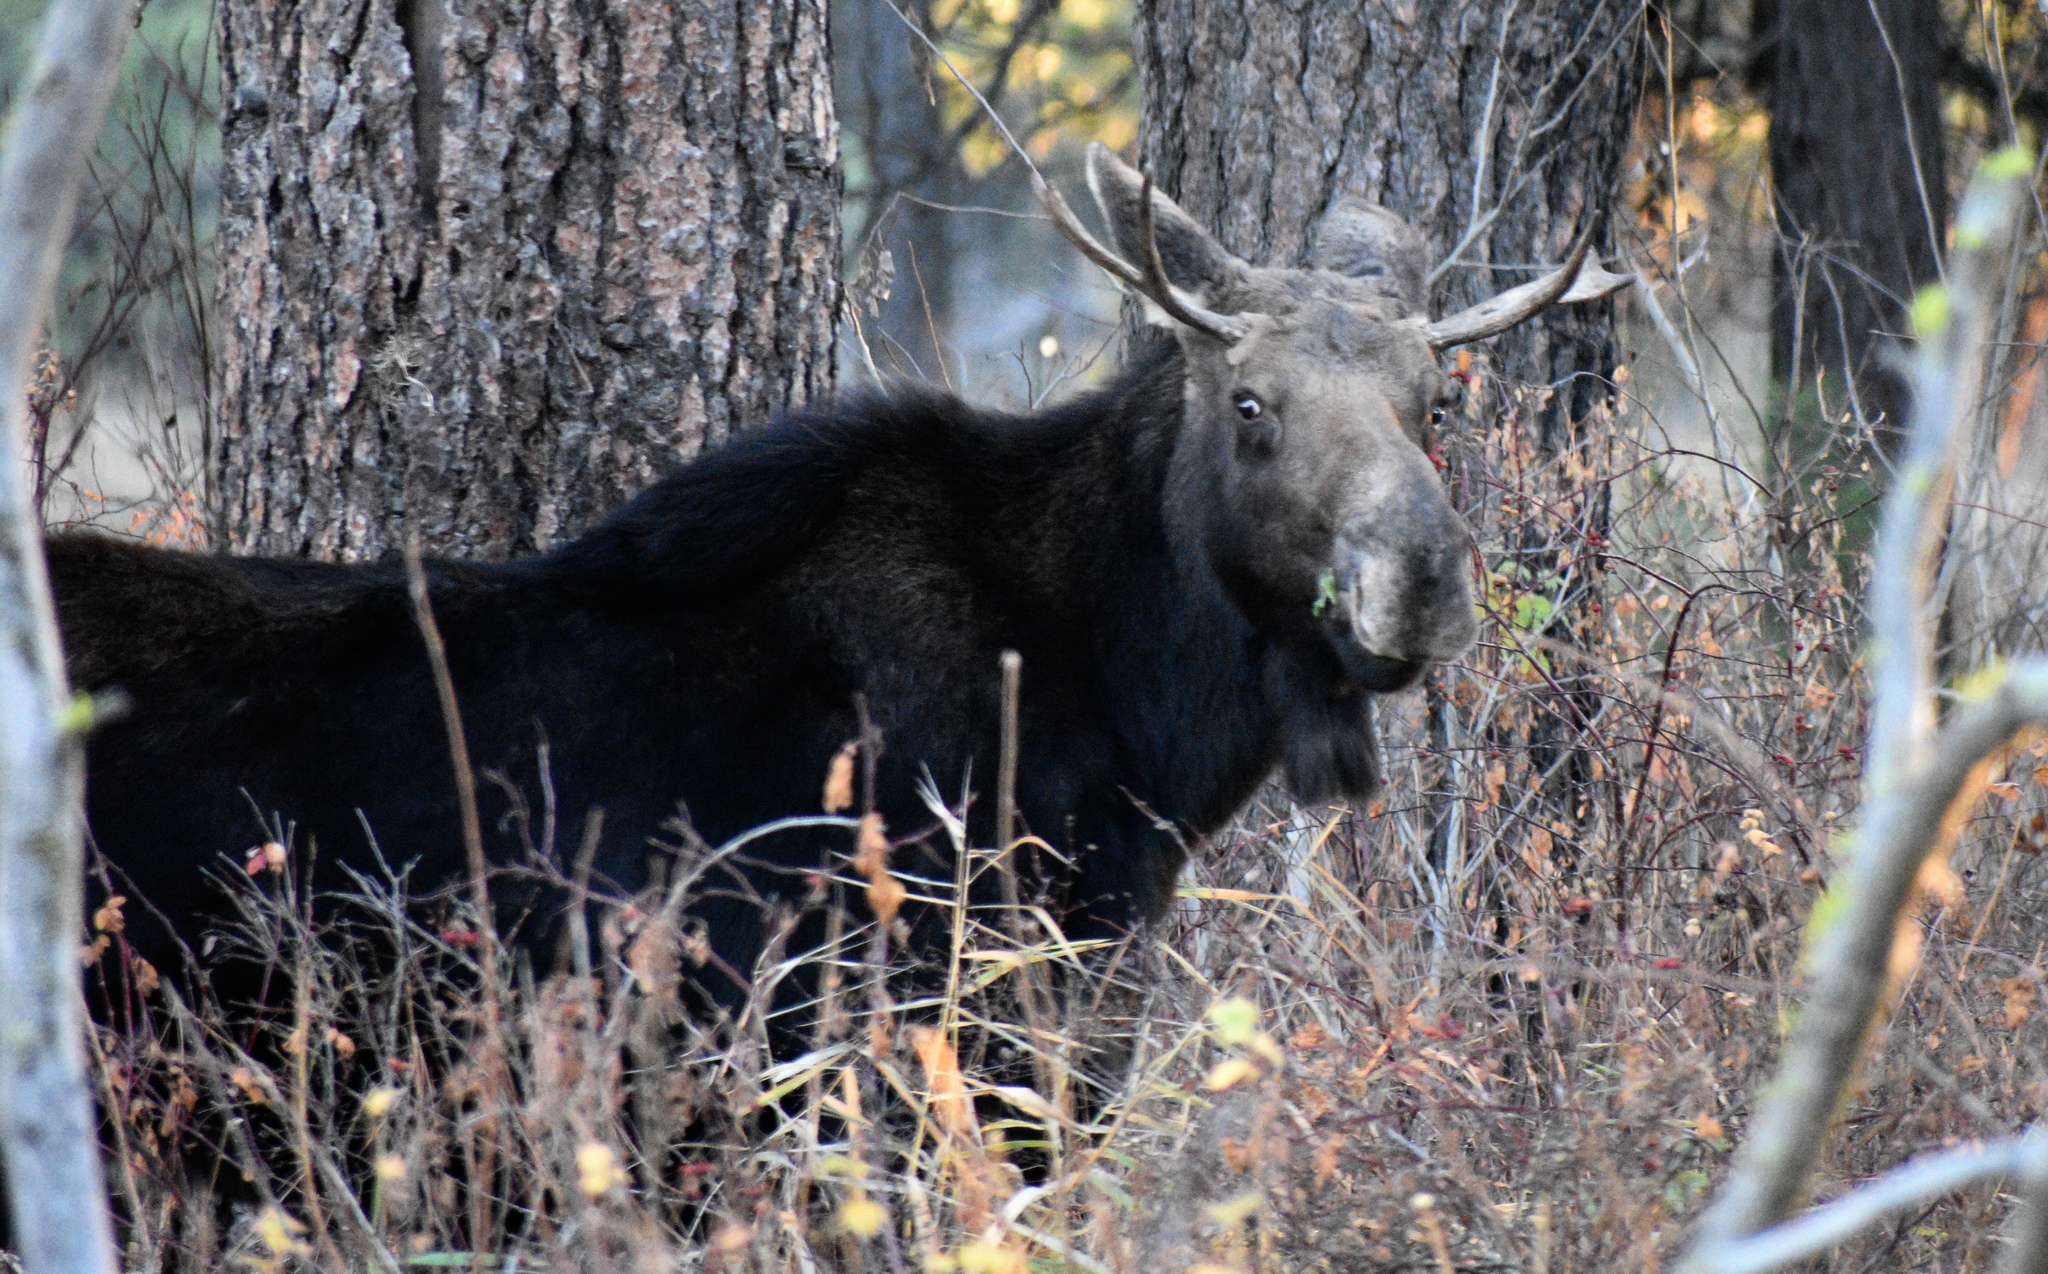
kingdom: Animalia
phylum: Chordata
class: Mammalia
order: Artiodactyla
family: Cervidae
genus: Alces
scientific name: Alces alces
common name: Moose
